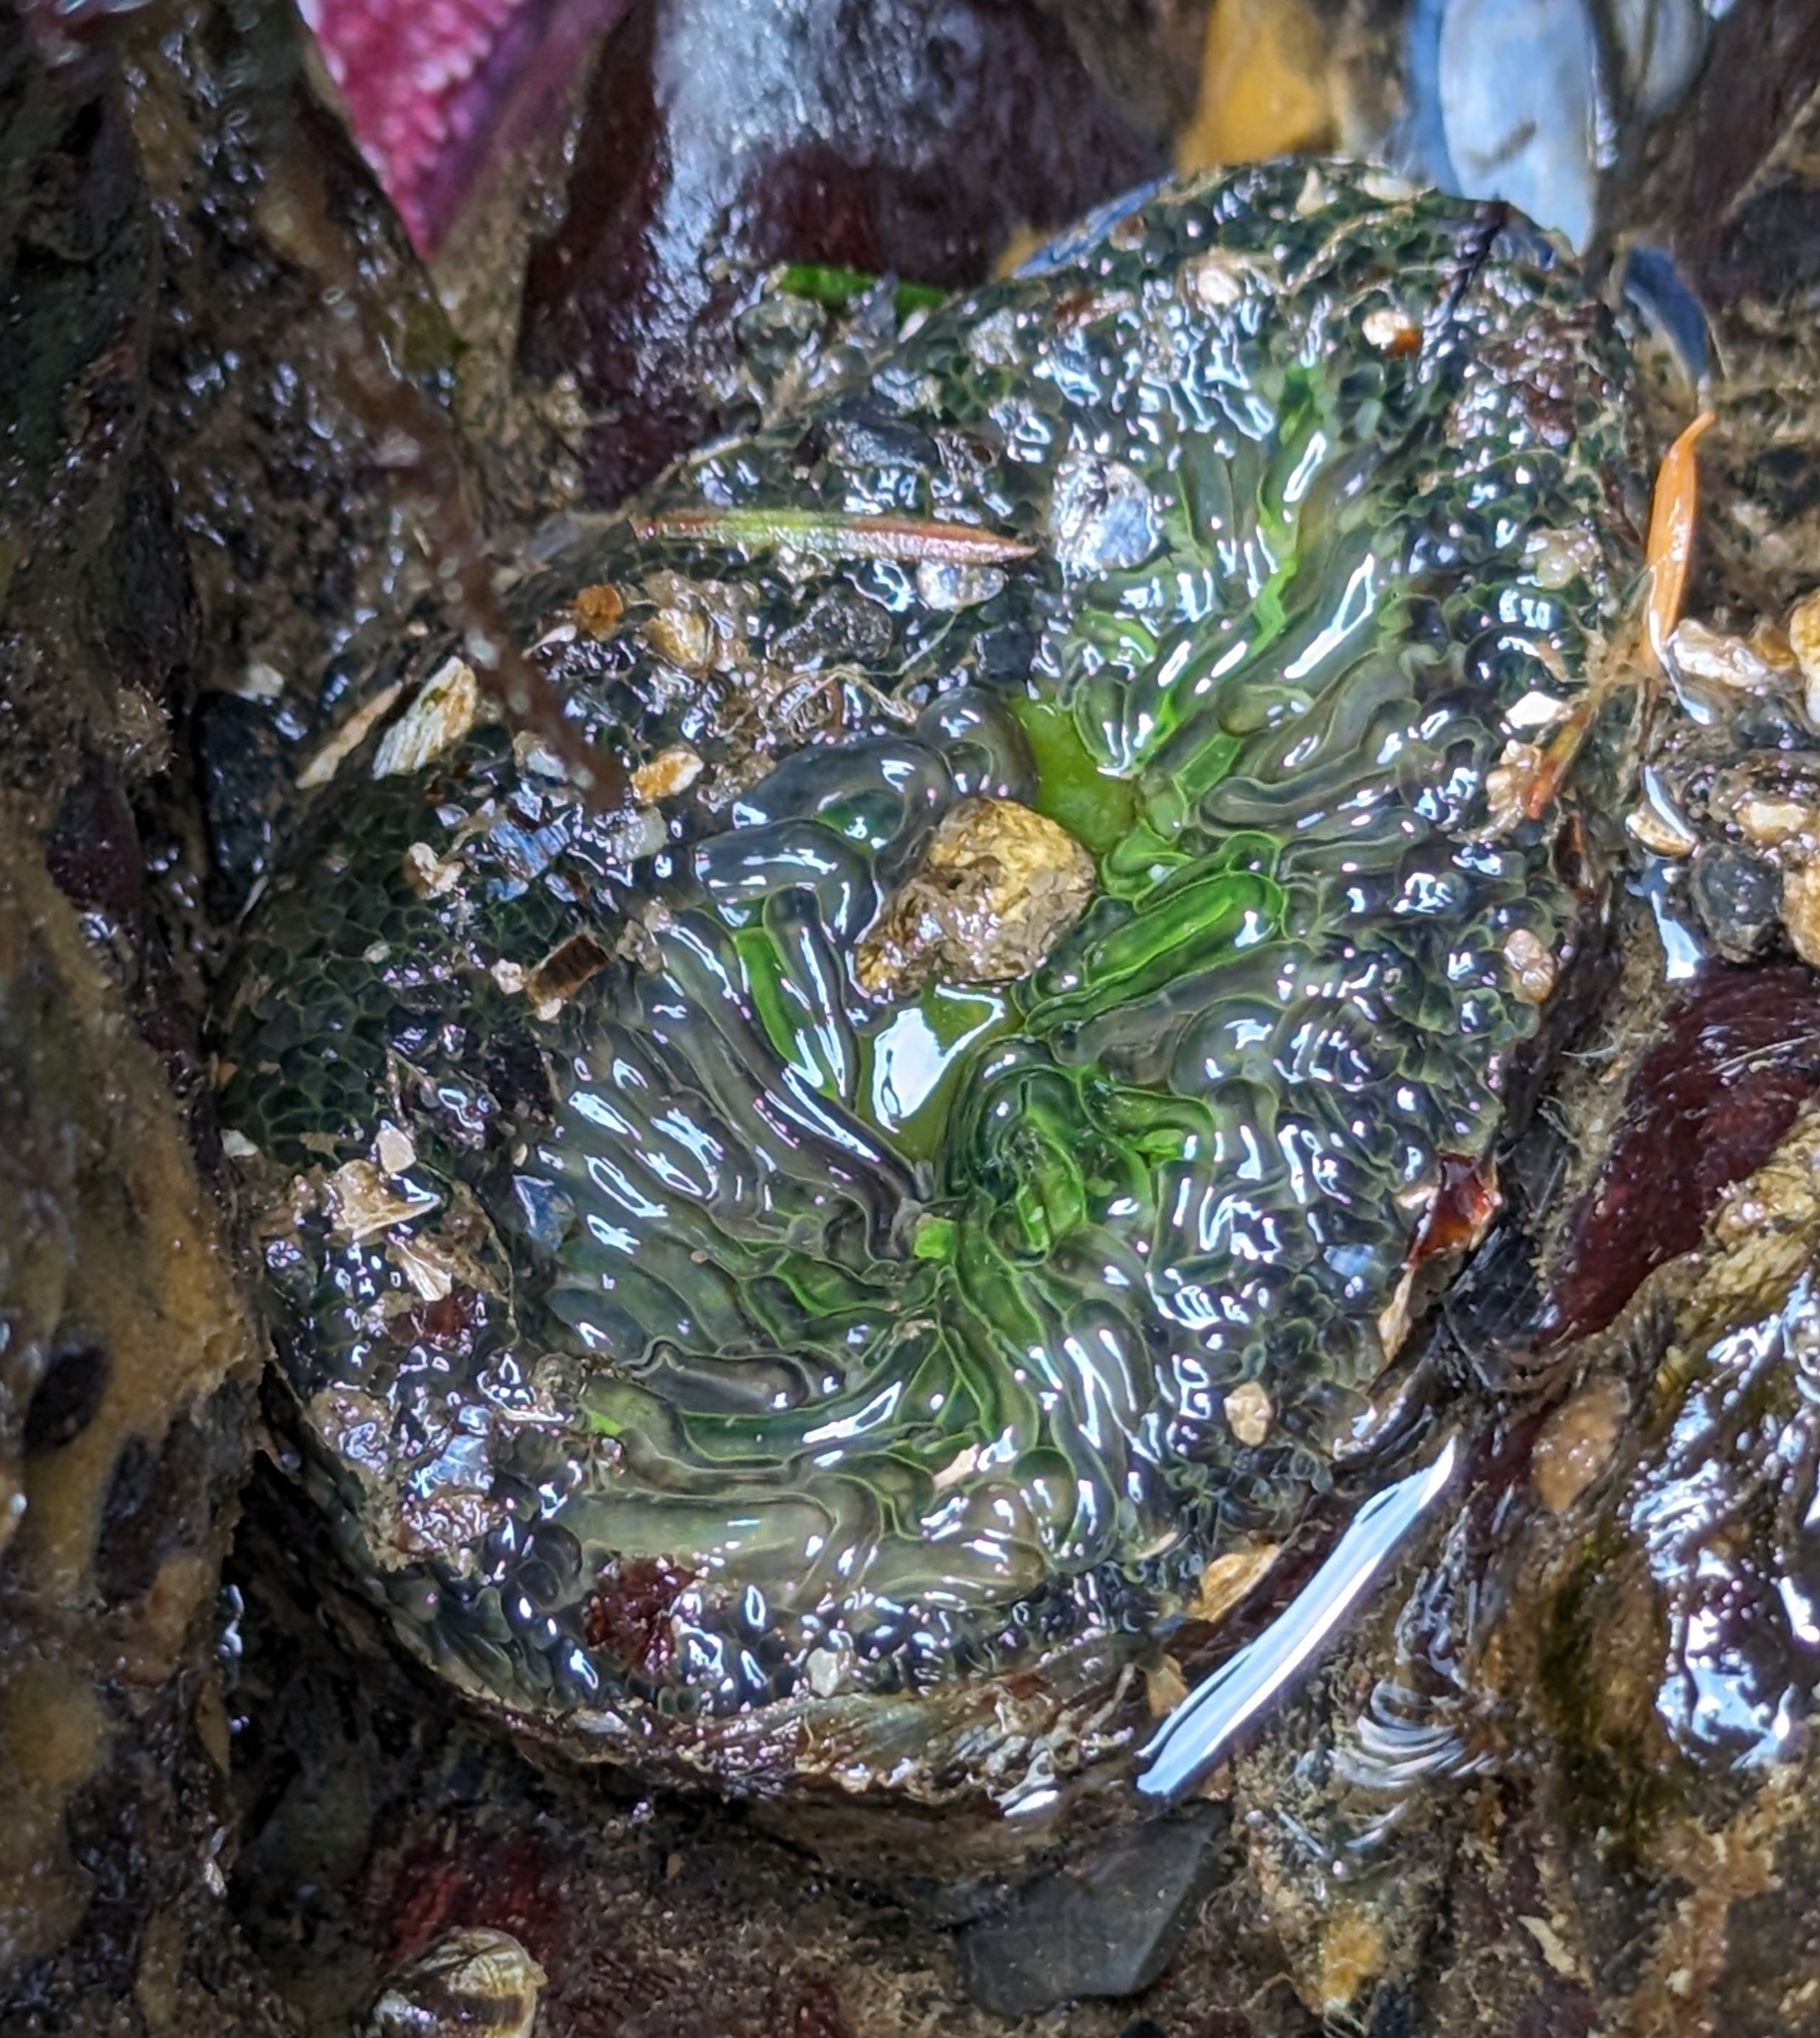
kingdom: Animalia
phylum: Cnidaria
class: Anthozoa
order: Actiniaria
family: Actiniidae
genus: Anthopleura
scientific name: Anthopleura artemisia
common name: Buried sea anemone
